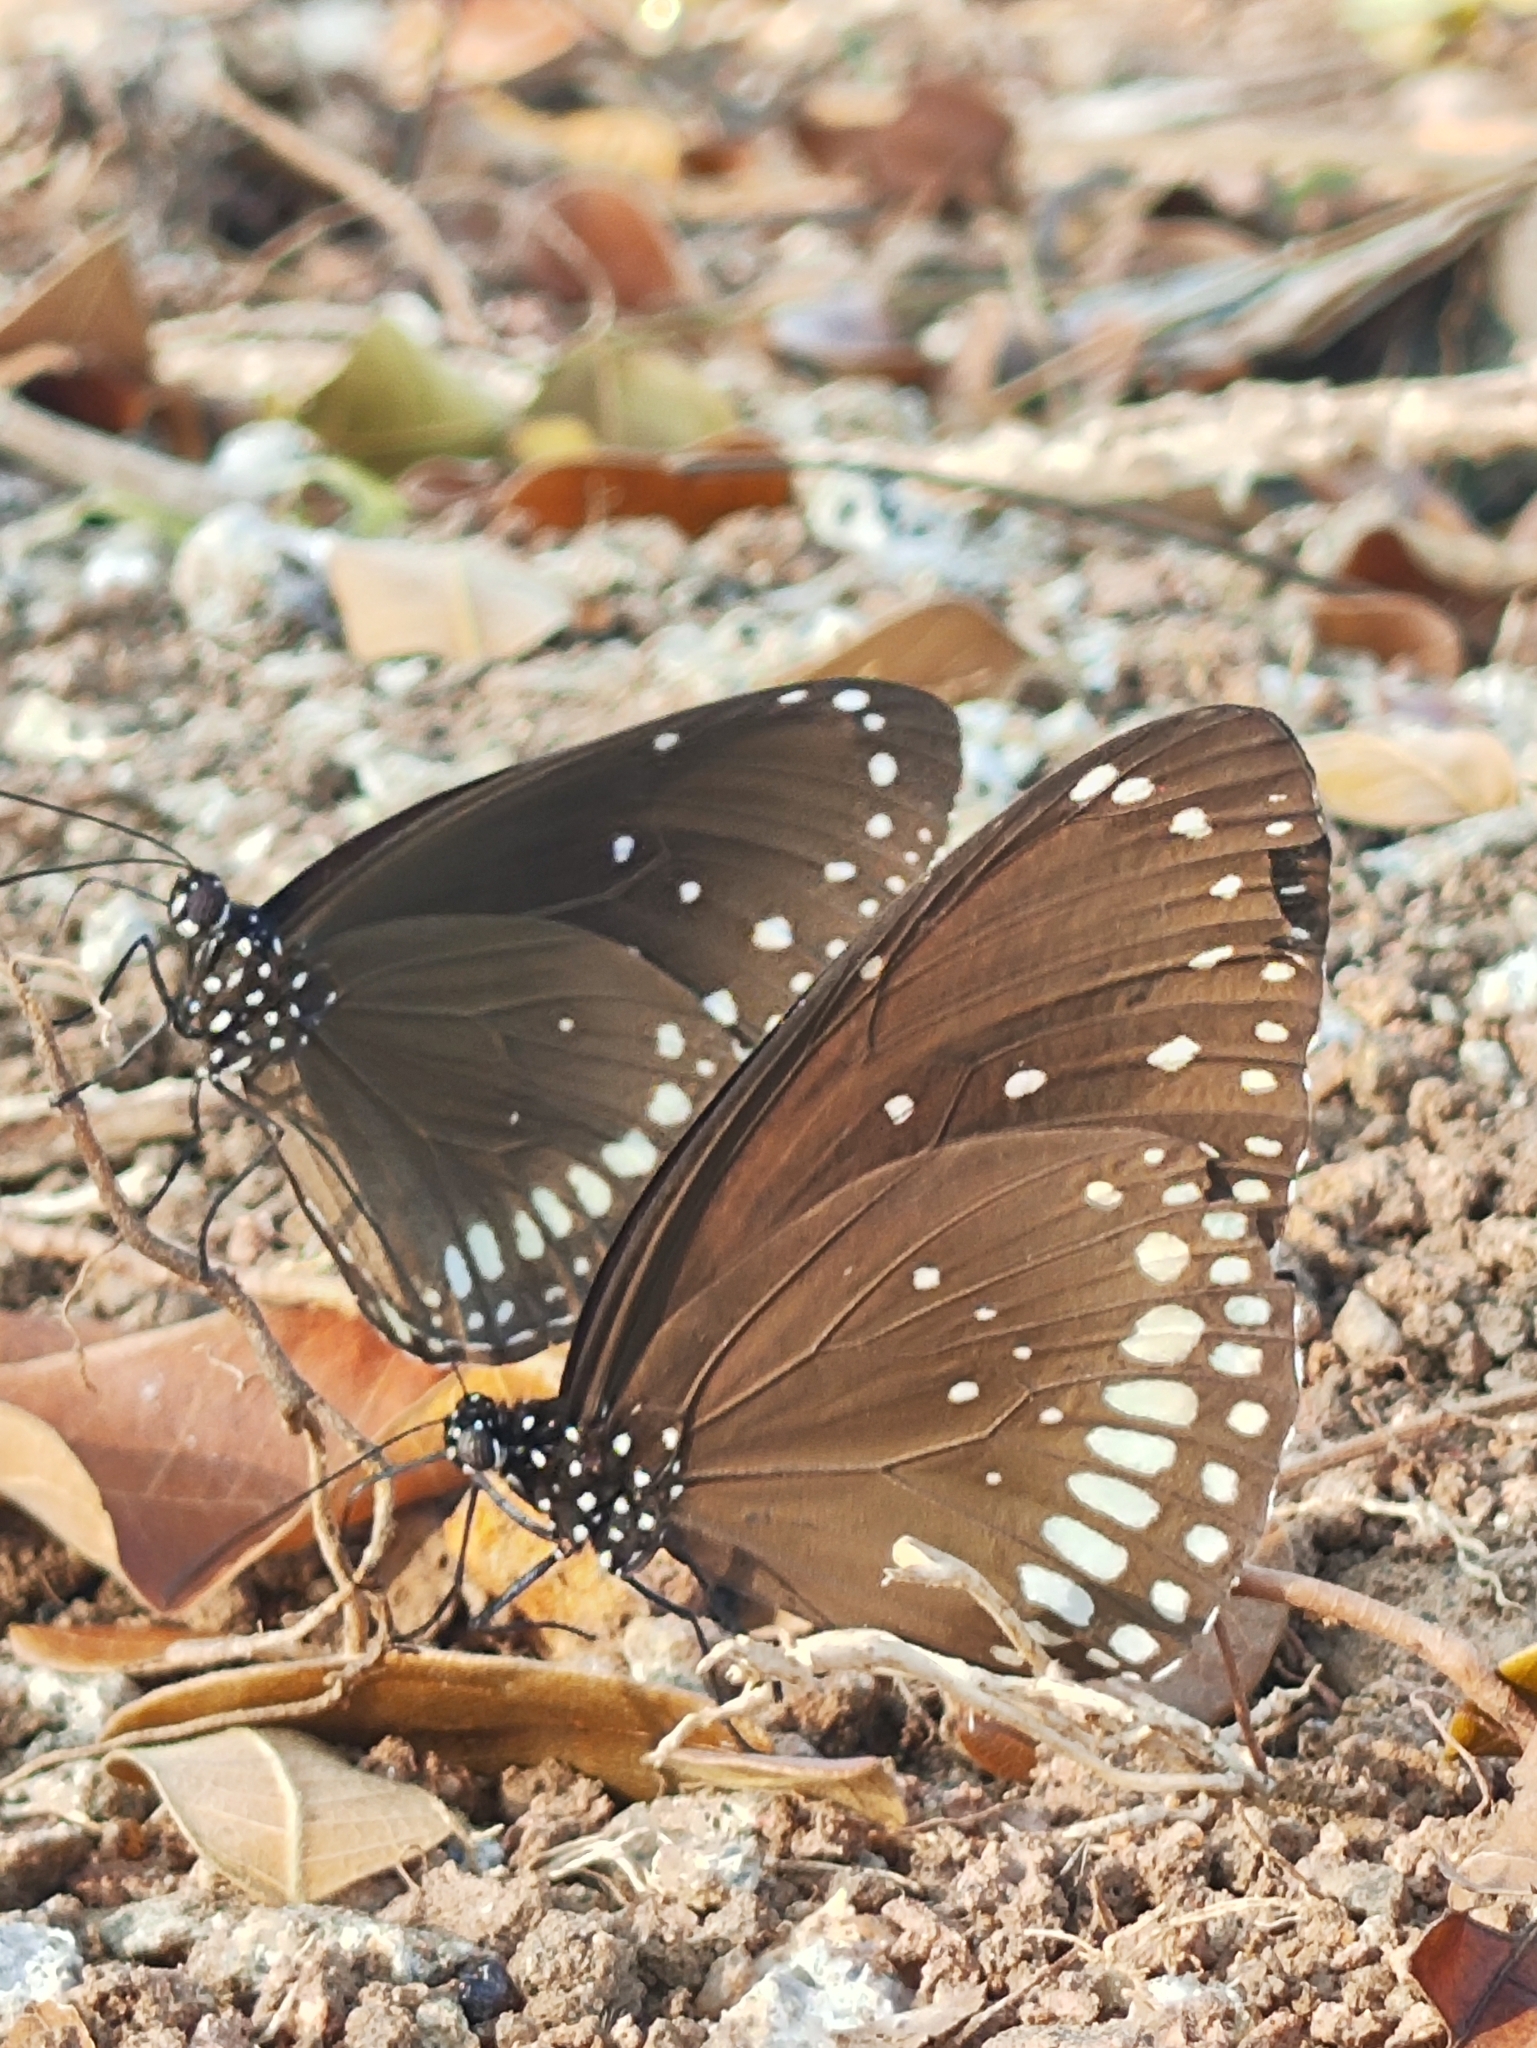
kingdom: Animalia
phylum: Arthropoda
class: Insecta
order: Lepidoptera
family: Nymphalidae
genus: Euploea
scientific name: Euploea core
